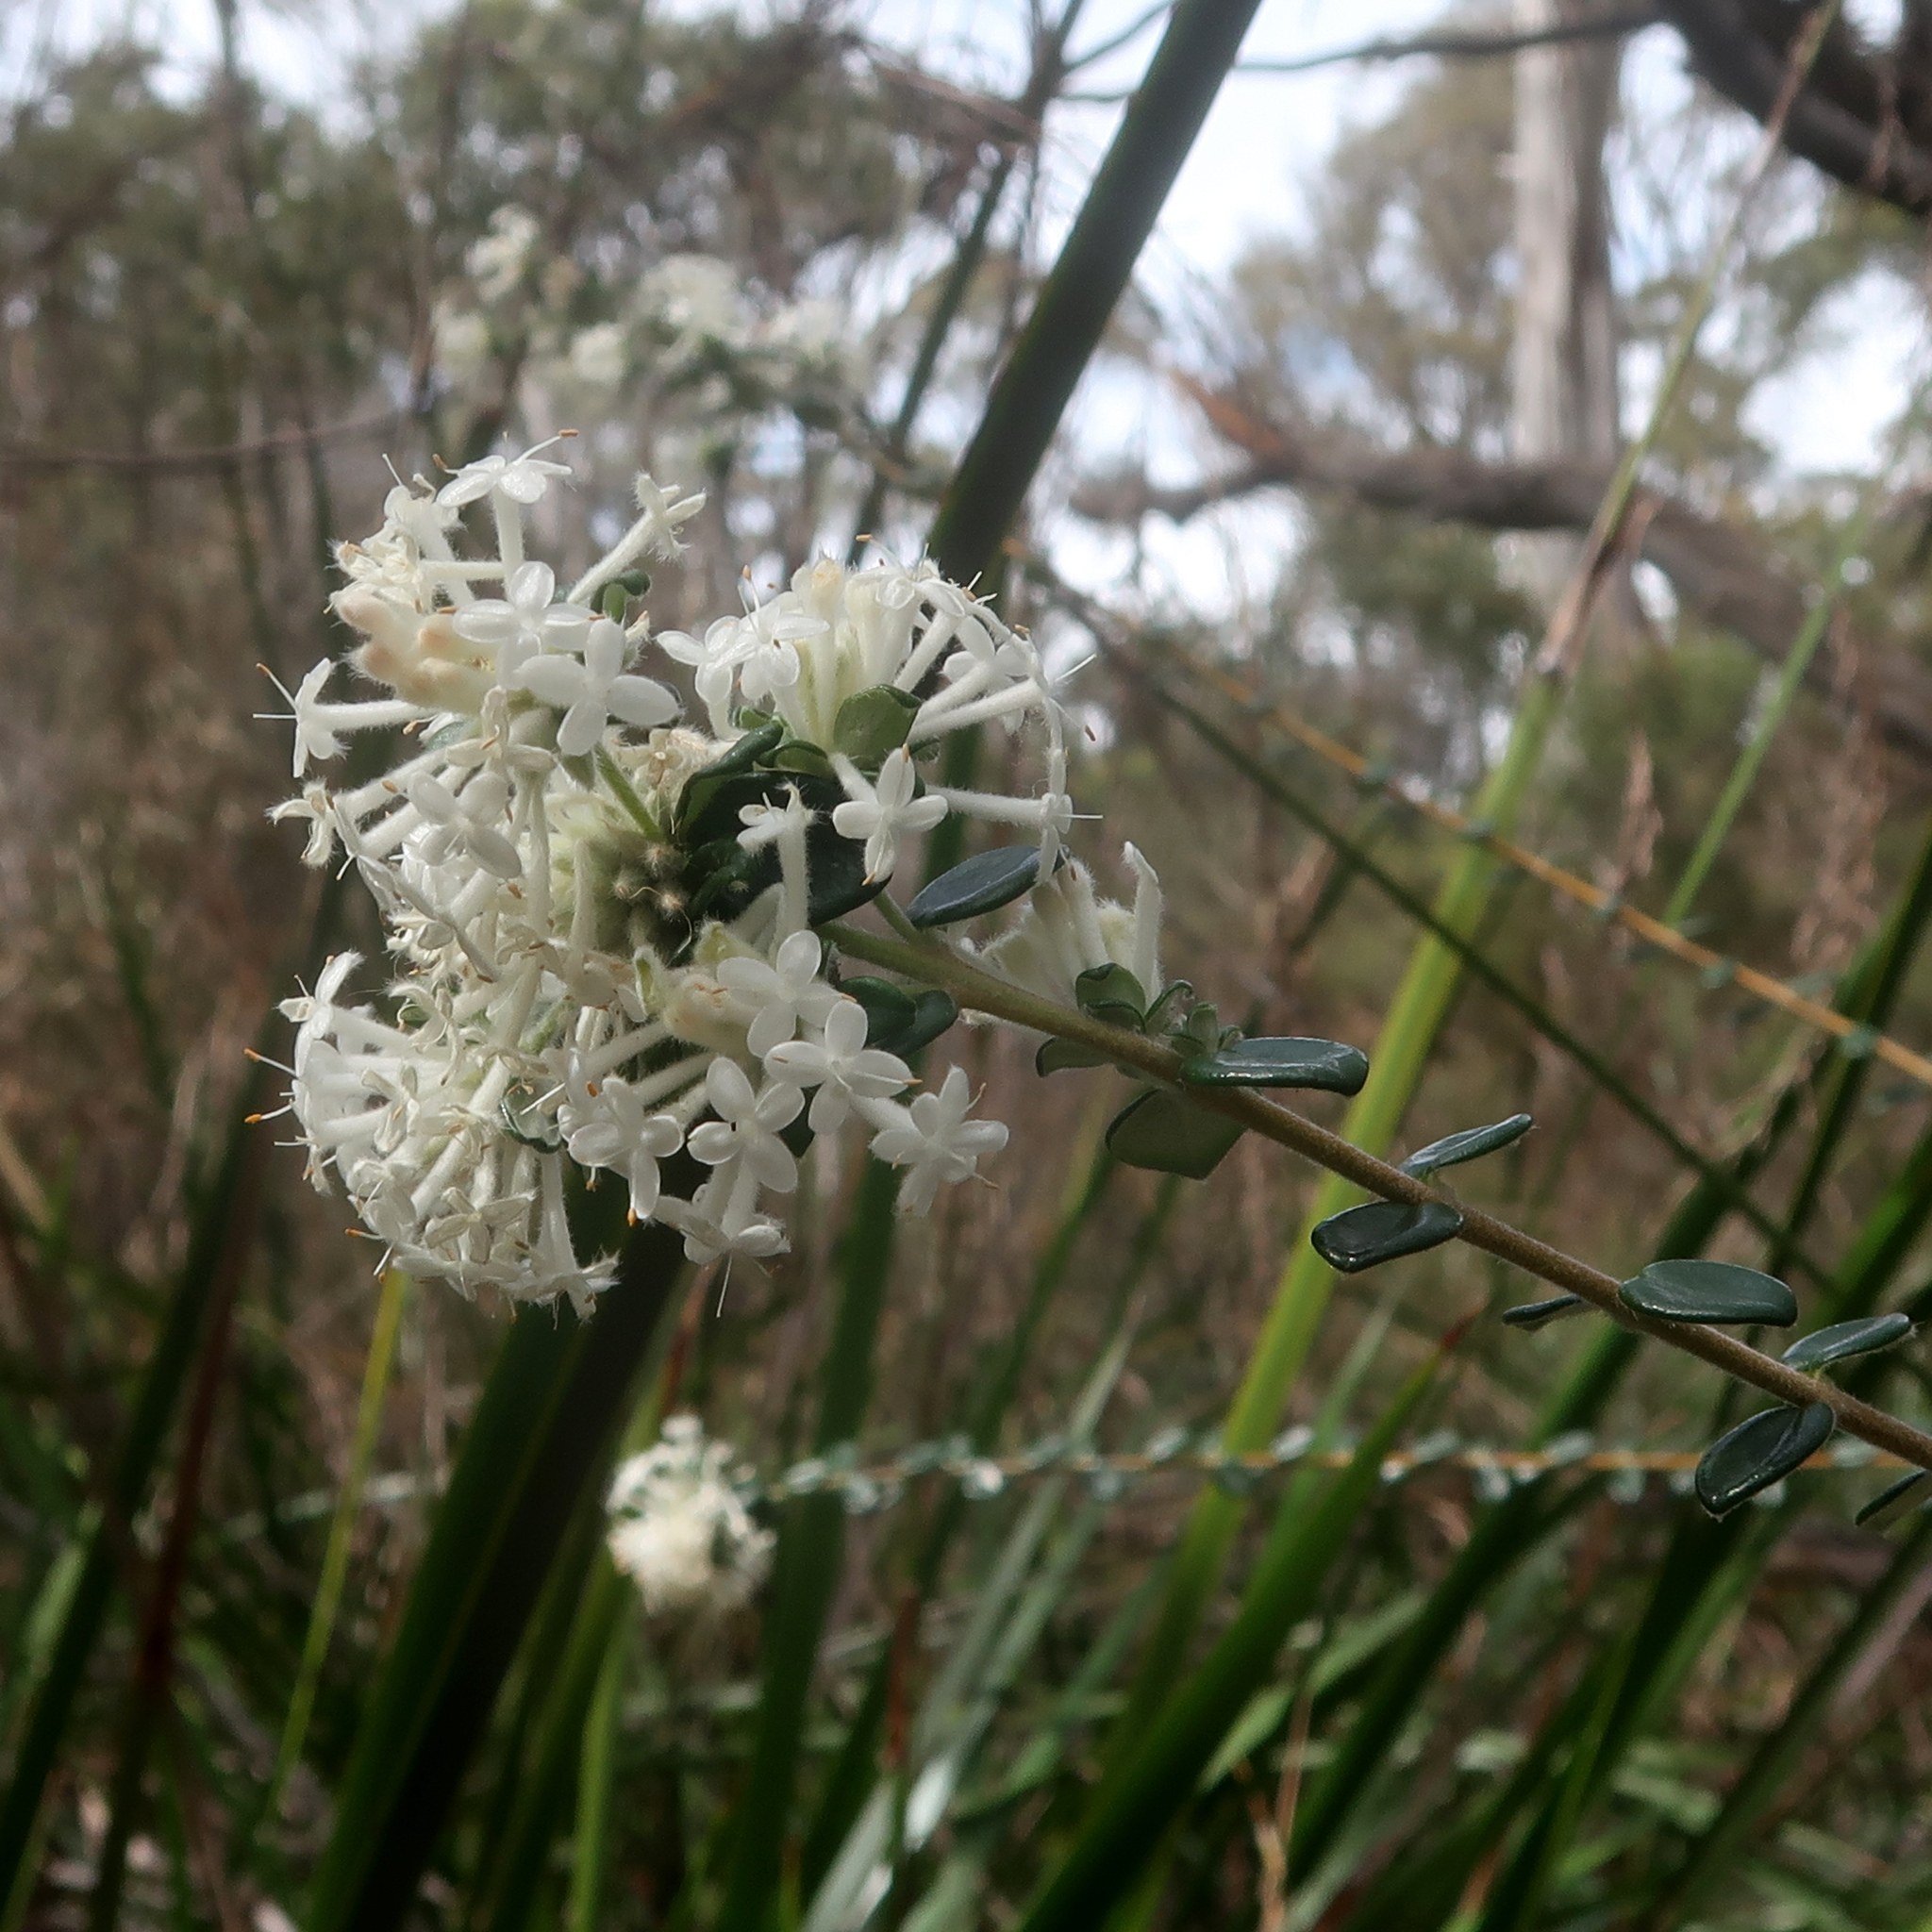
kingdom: Plantae
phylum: Tracheophyta
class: Magnoliopsida
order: Malvales
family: Thymelaeaceae
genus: Pimelea
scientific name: Pimelea nivea
